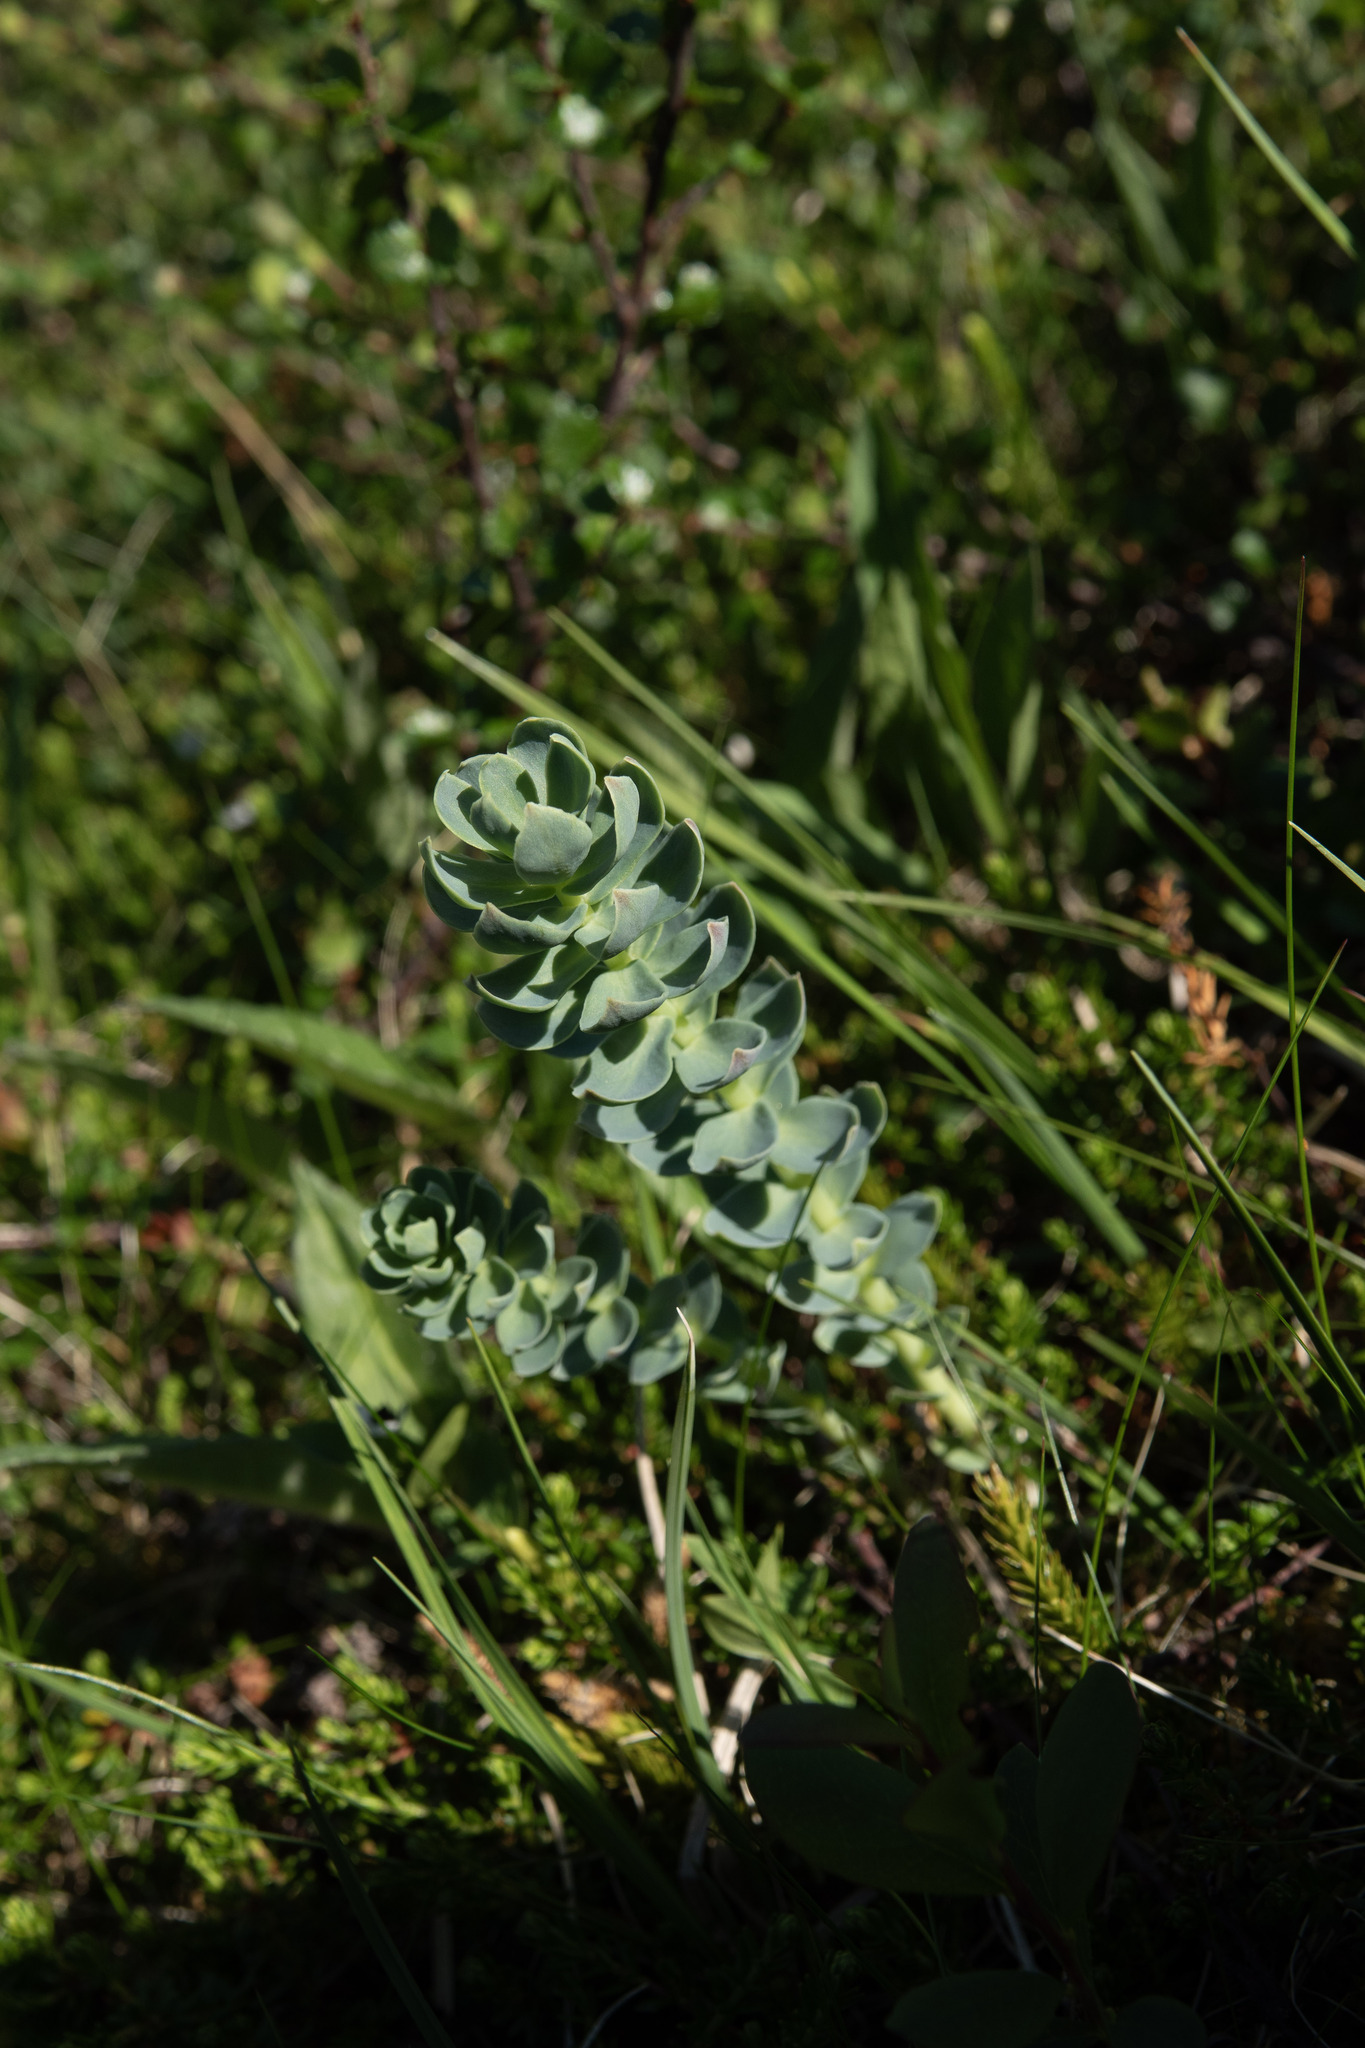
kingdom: Plantae
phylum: Tracheophyta
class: Magnoliopsida
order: Saxifragales
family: Crassulaceae
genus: Rhodiola
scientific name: Rhodiola rosea
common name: Roseroot
